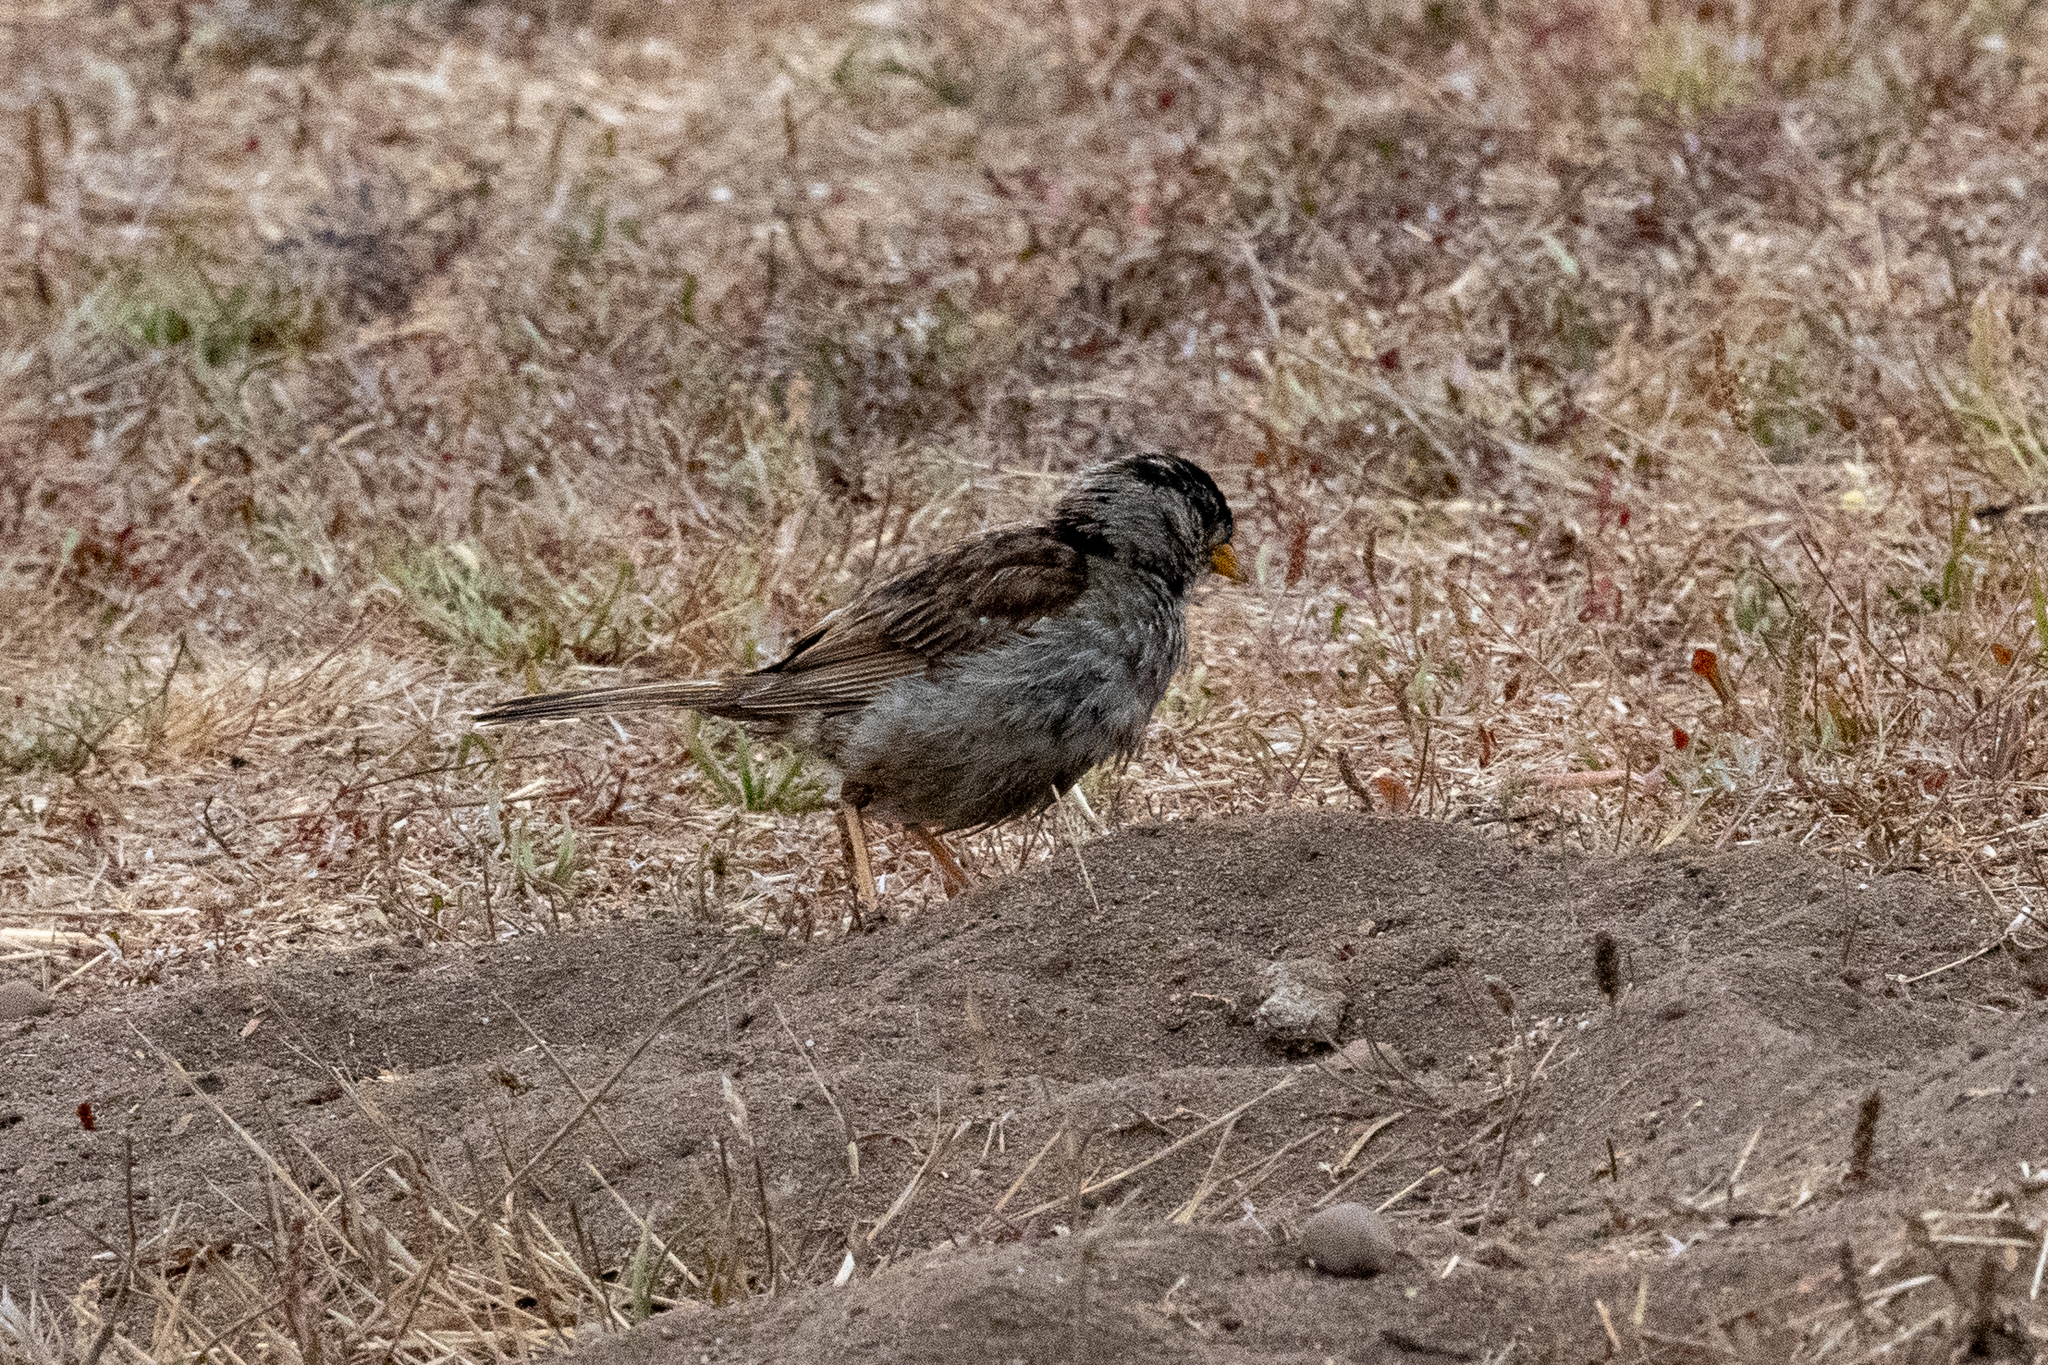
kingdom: Animalia
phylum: Chordata
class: Aves
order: Passeriformes
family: Passerellidae
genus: Zonotrichia
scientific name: Zonotrichia leucophrys
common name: White-crowned sparrow
